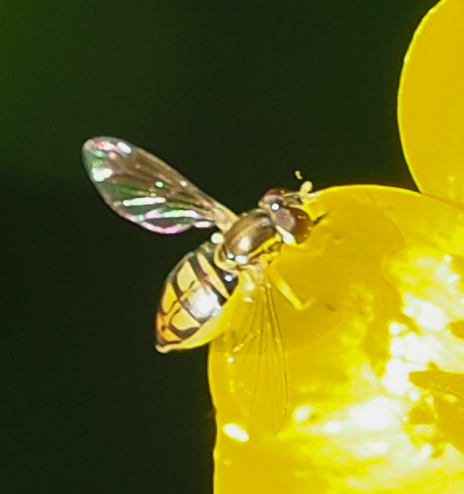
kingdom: Animalia
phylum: Arthropoda
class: Insecta
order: Diptera
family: Syrphidae
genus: Toxomerus
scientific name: Toxomerus marginatus
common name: Syrphid fly
